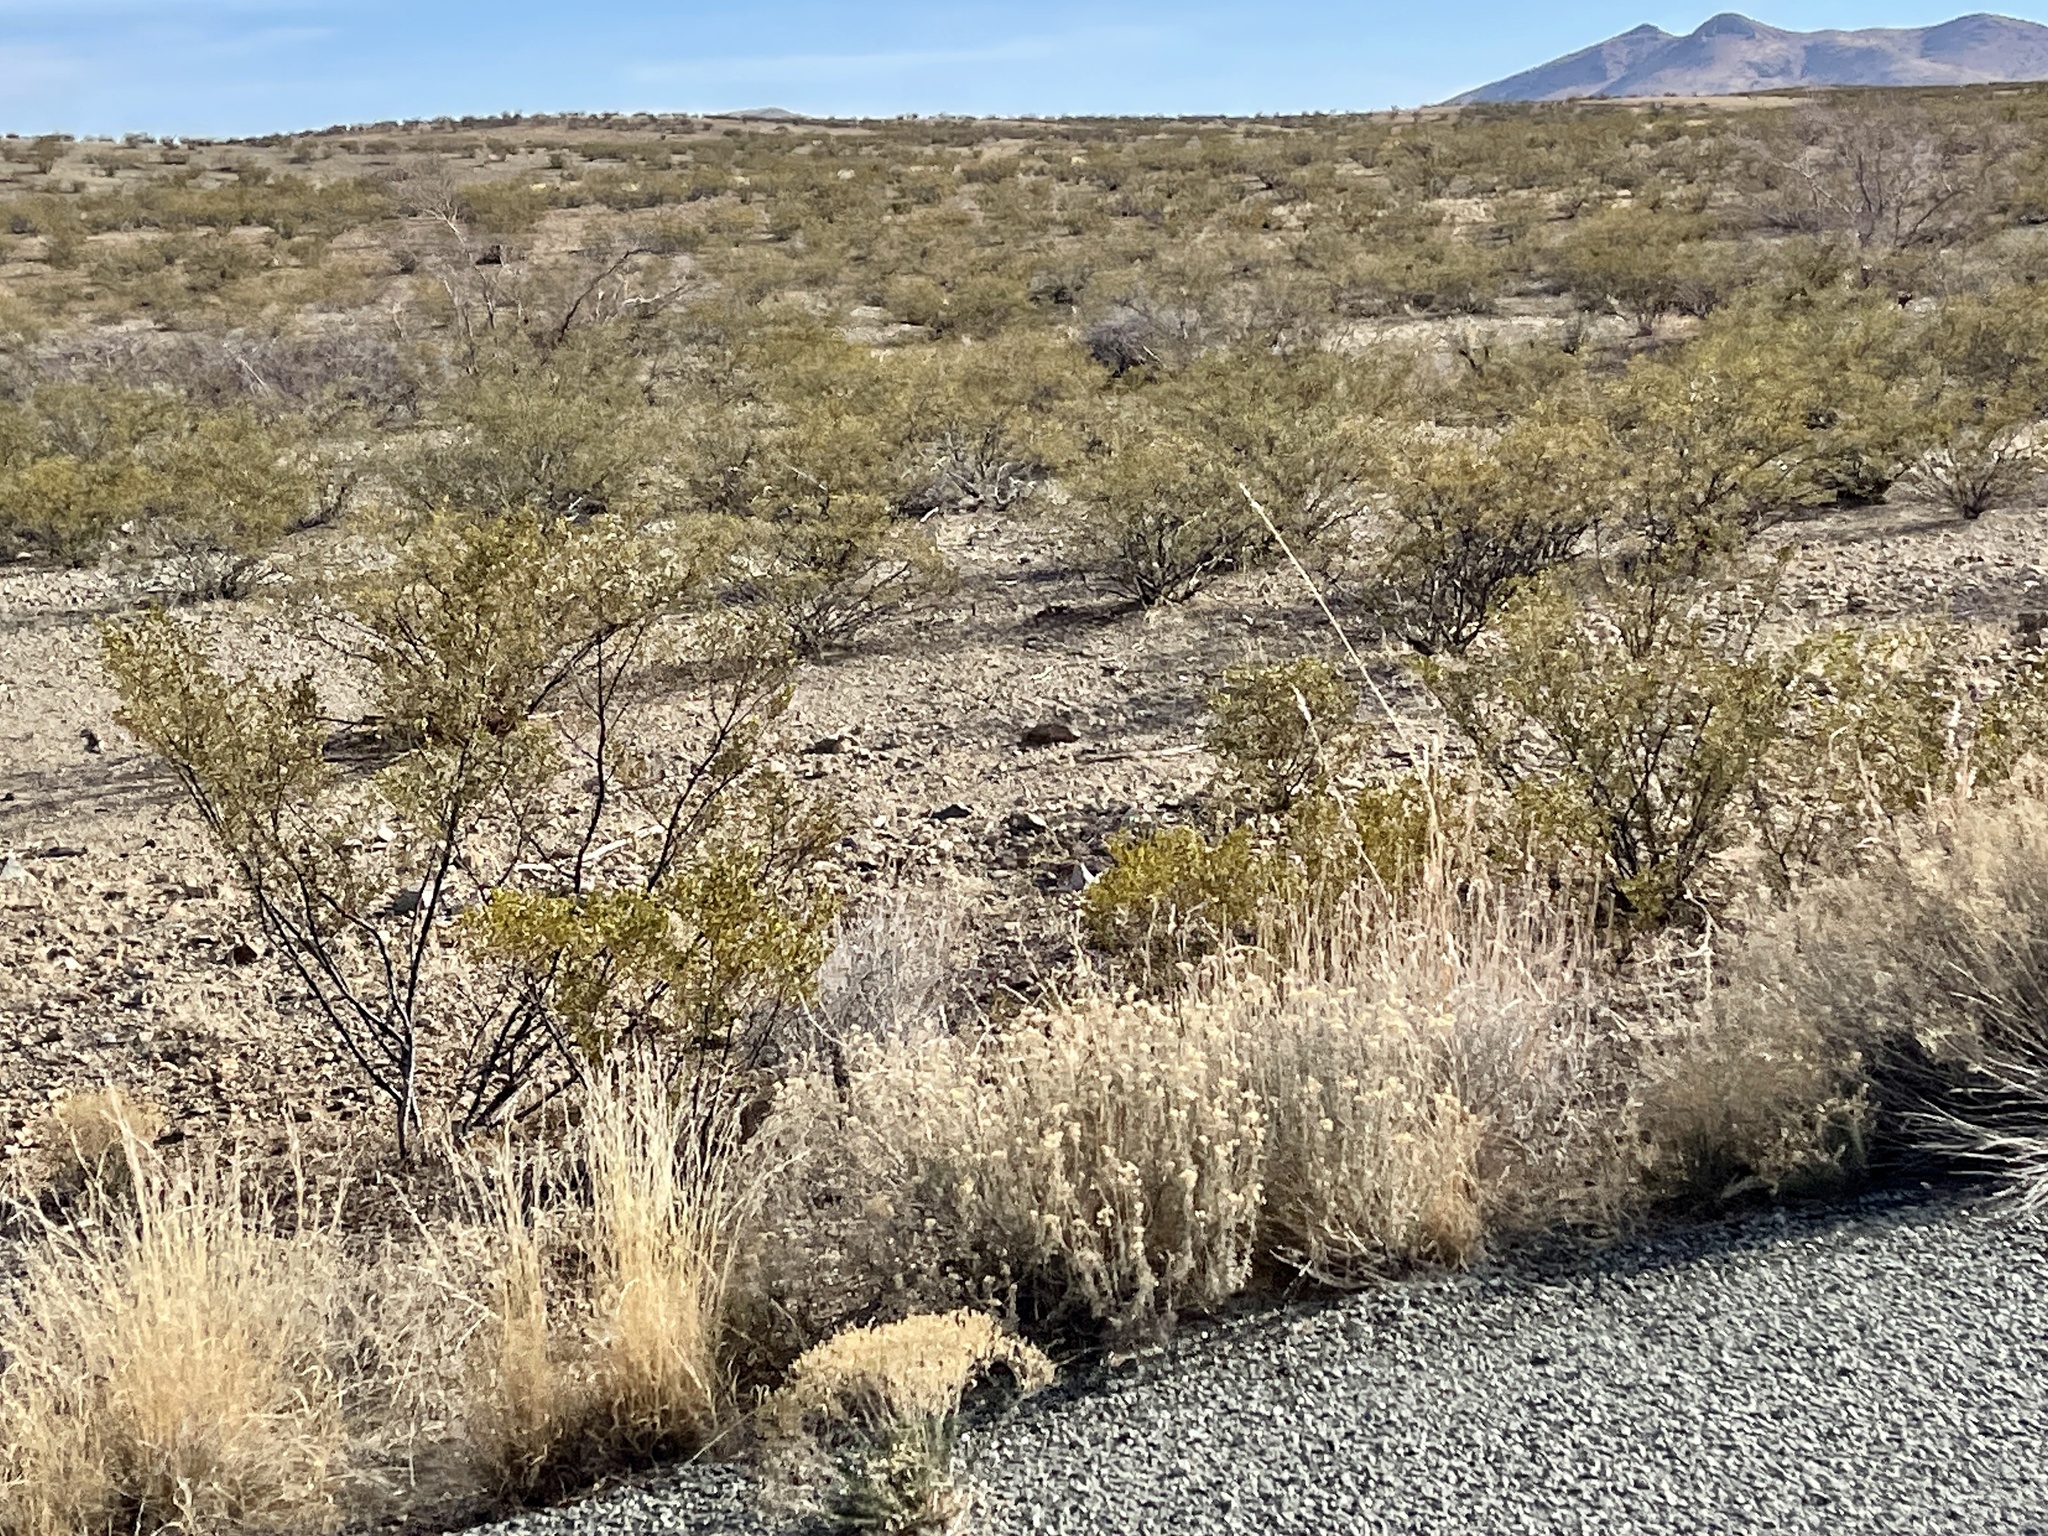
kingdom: Plantae
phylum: Tracheophyta
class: Magnoliopsida
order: Zygophyllales
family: Zygophyllaceae
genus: Larrea
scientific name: Larrea tridentata
